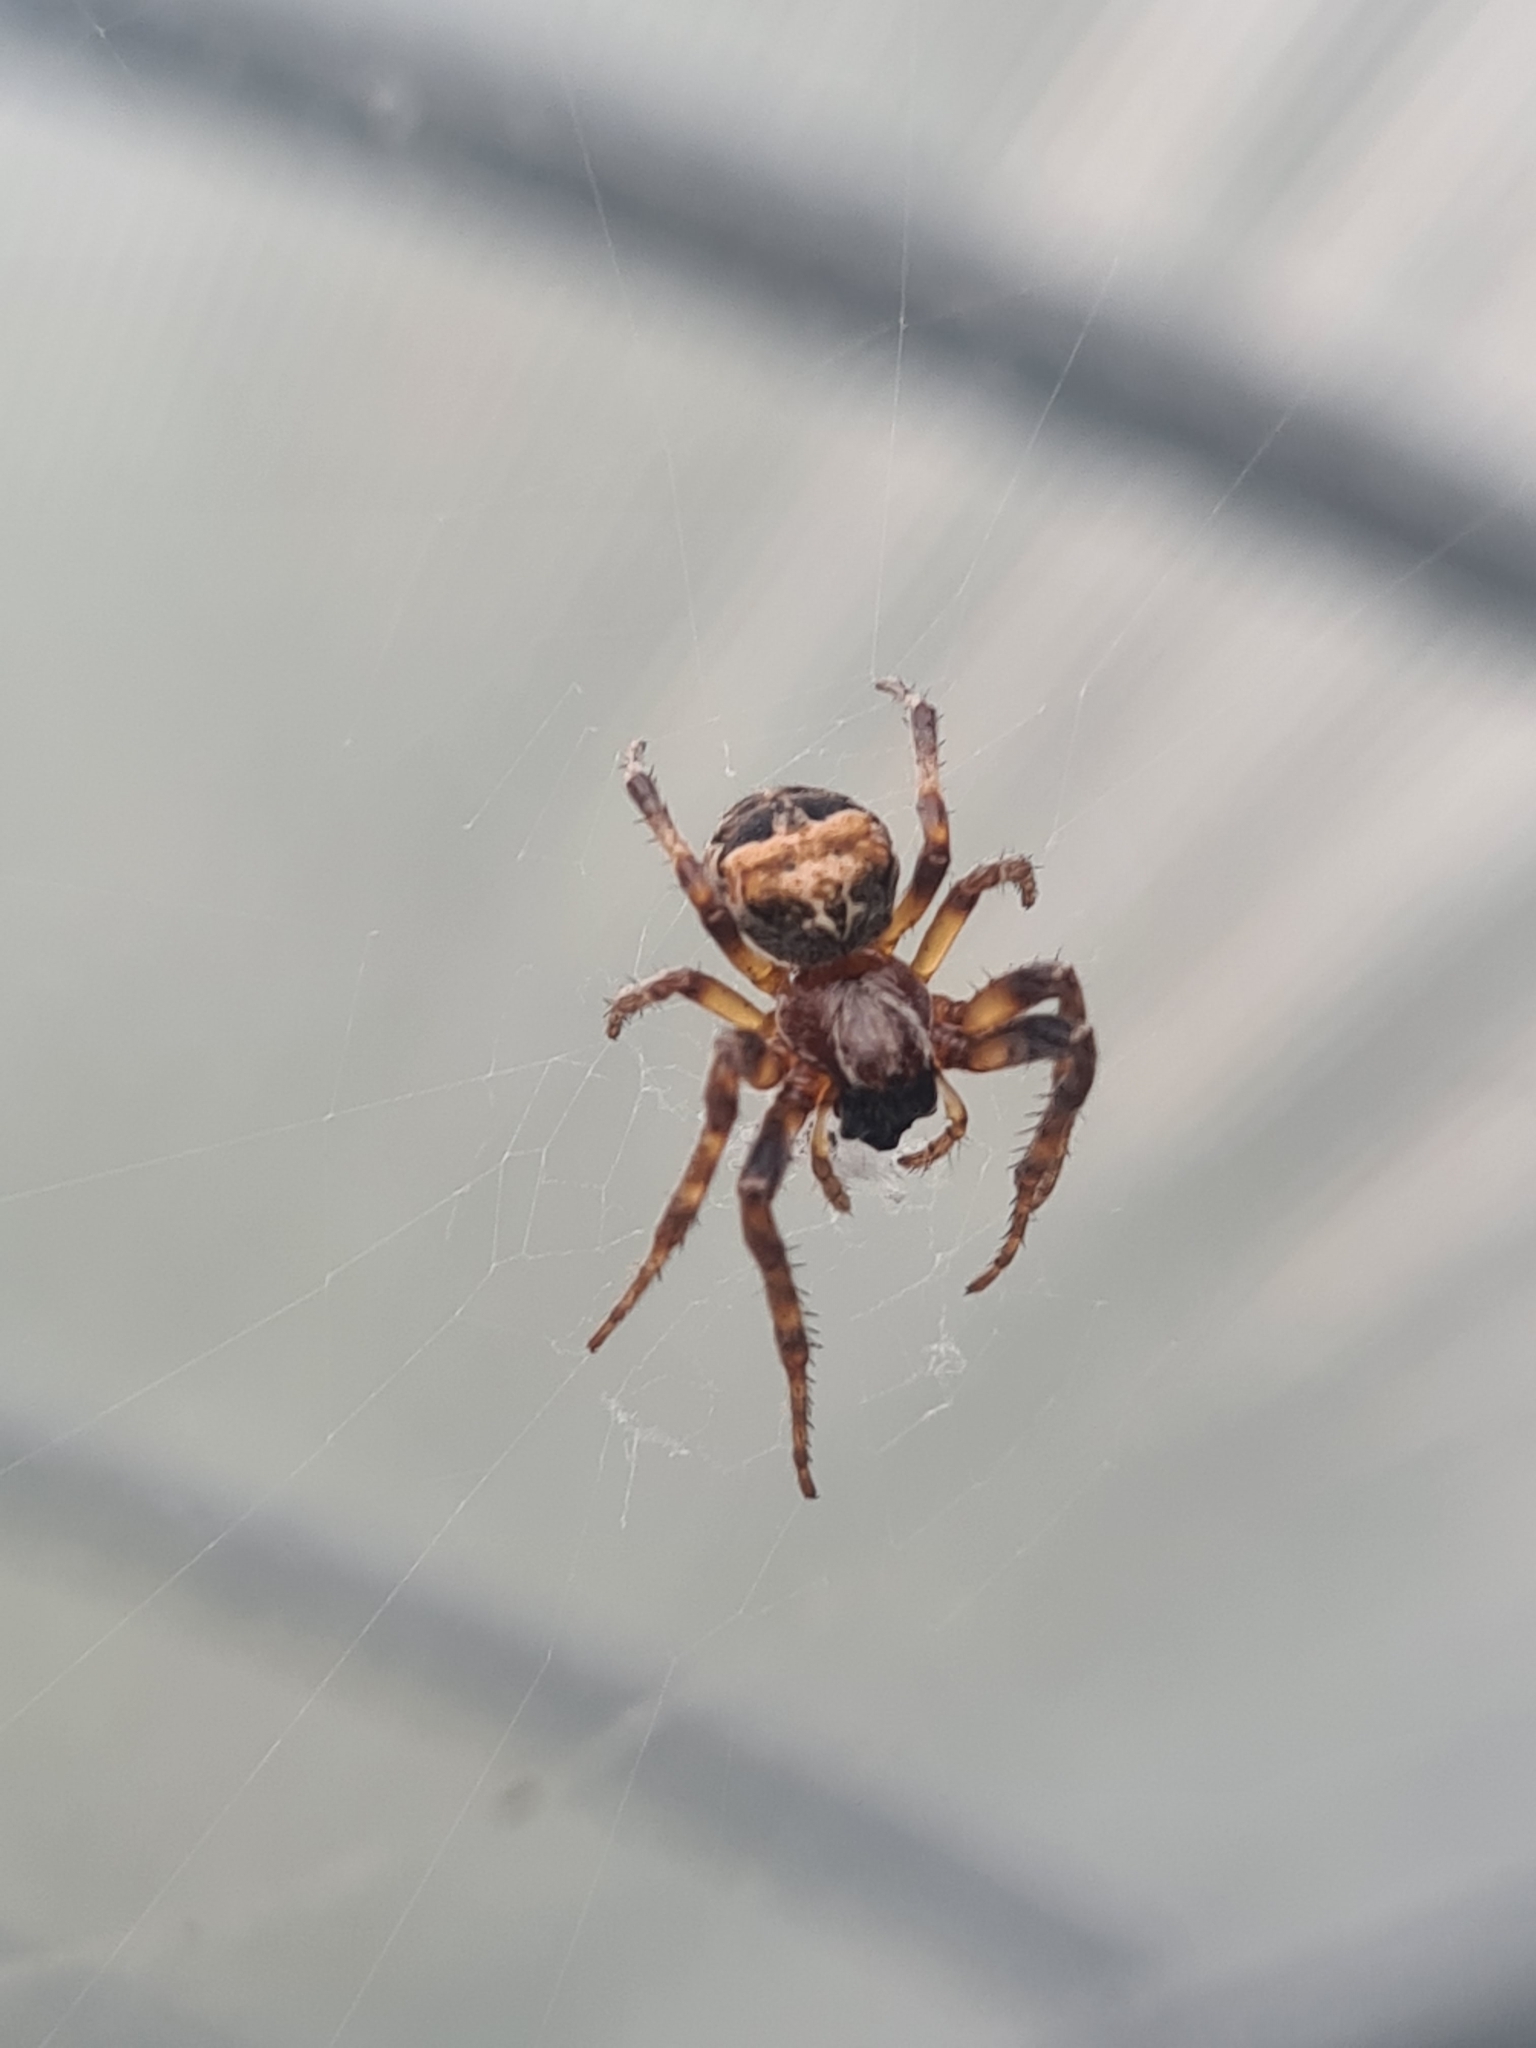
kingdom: Animalia
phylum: Arthropoda
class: Arachnida
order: Araneae
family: Araneidae
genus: Araneus
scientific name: Araneus diadematus
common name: Cross orbweaver
